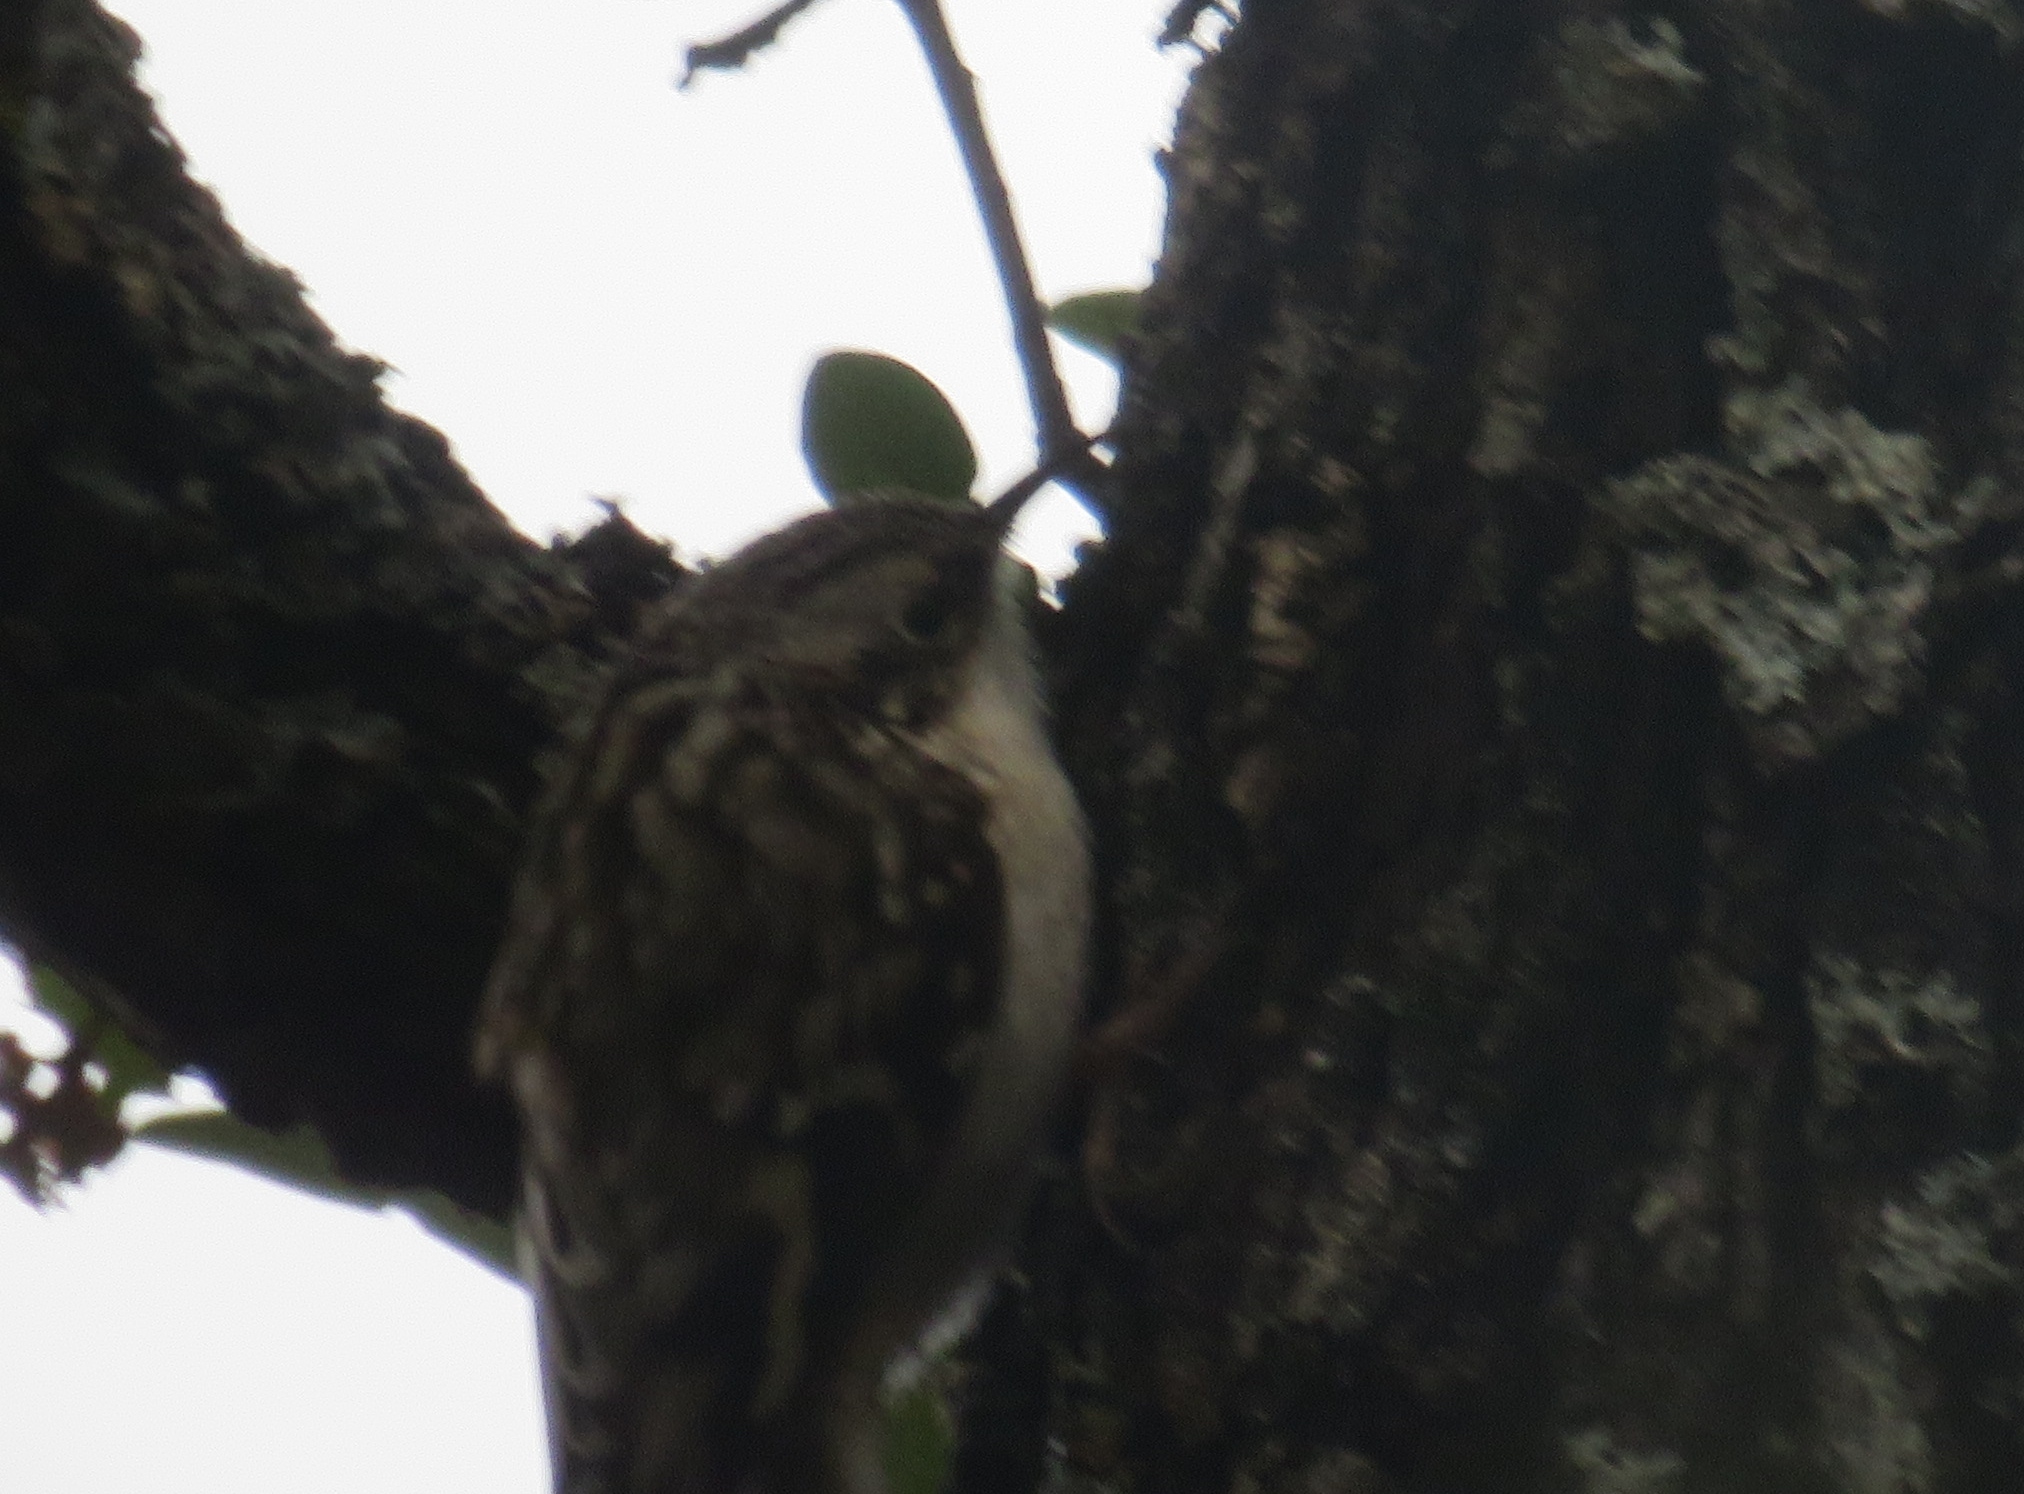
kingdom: Animalia
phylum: Chordata
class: Aves
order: Passeriformes
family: Certhiidae
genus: Certhia
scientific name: Certhia americana
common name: Brown creeper
